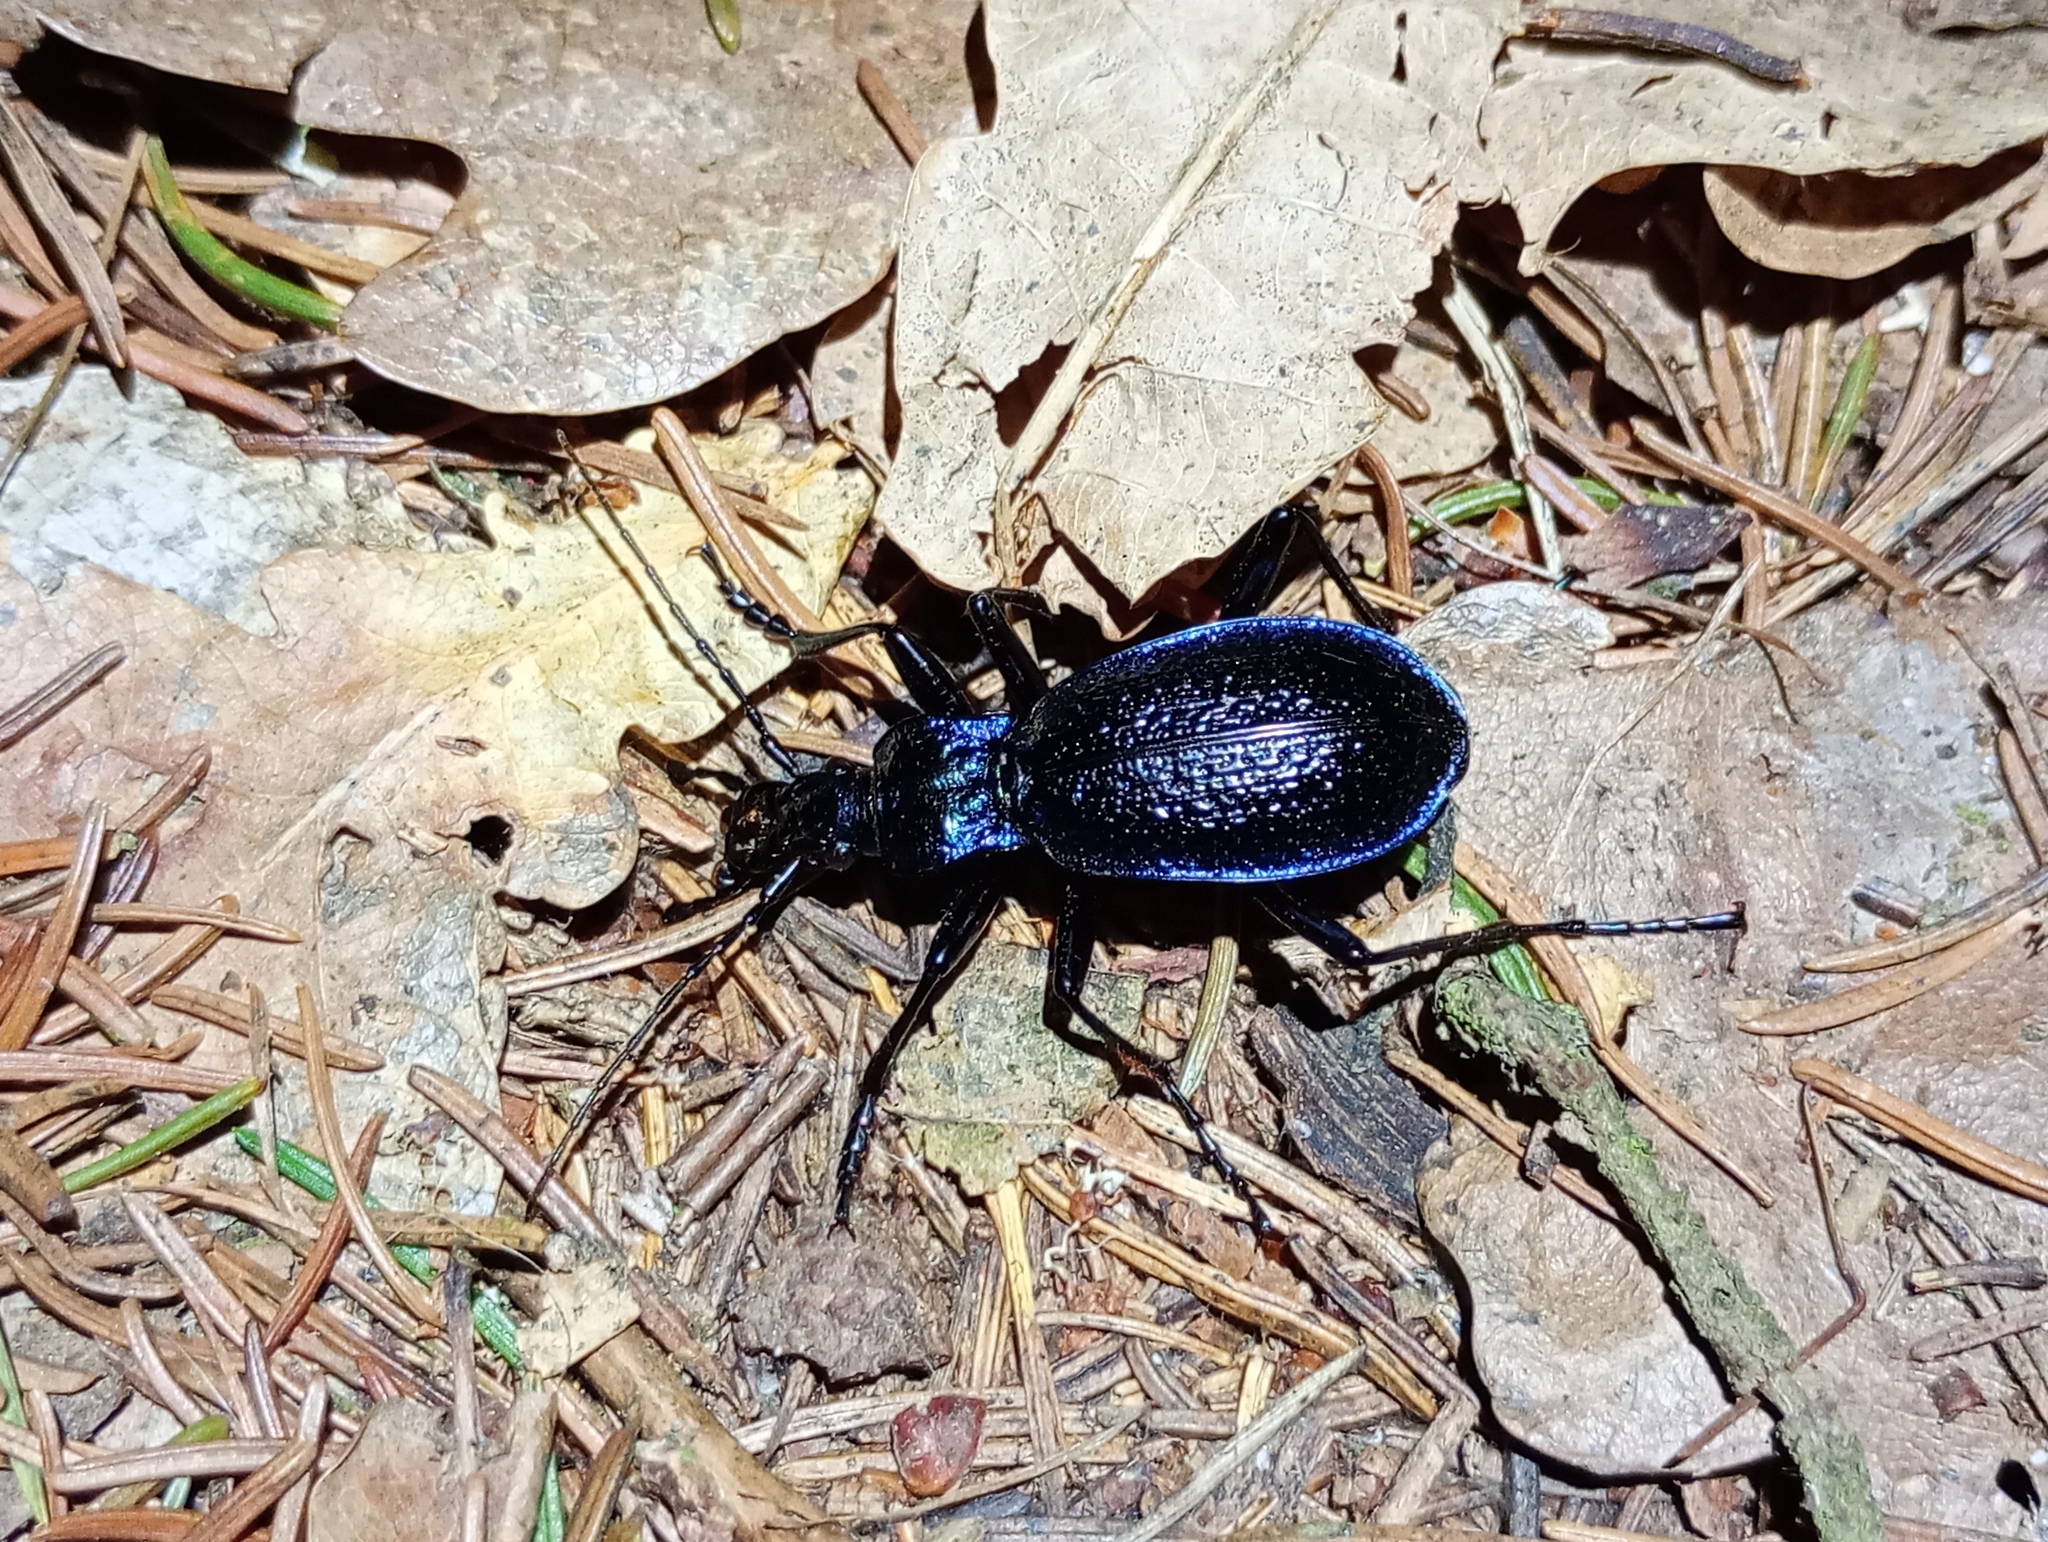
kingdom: Animalia
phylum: Arthropoda
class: Insecta
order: Coleoptera
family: Carabidae
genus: Carabus
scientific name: Carabus intricatus
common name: Blue ground beetle
